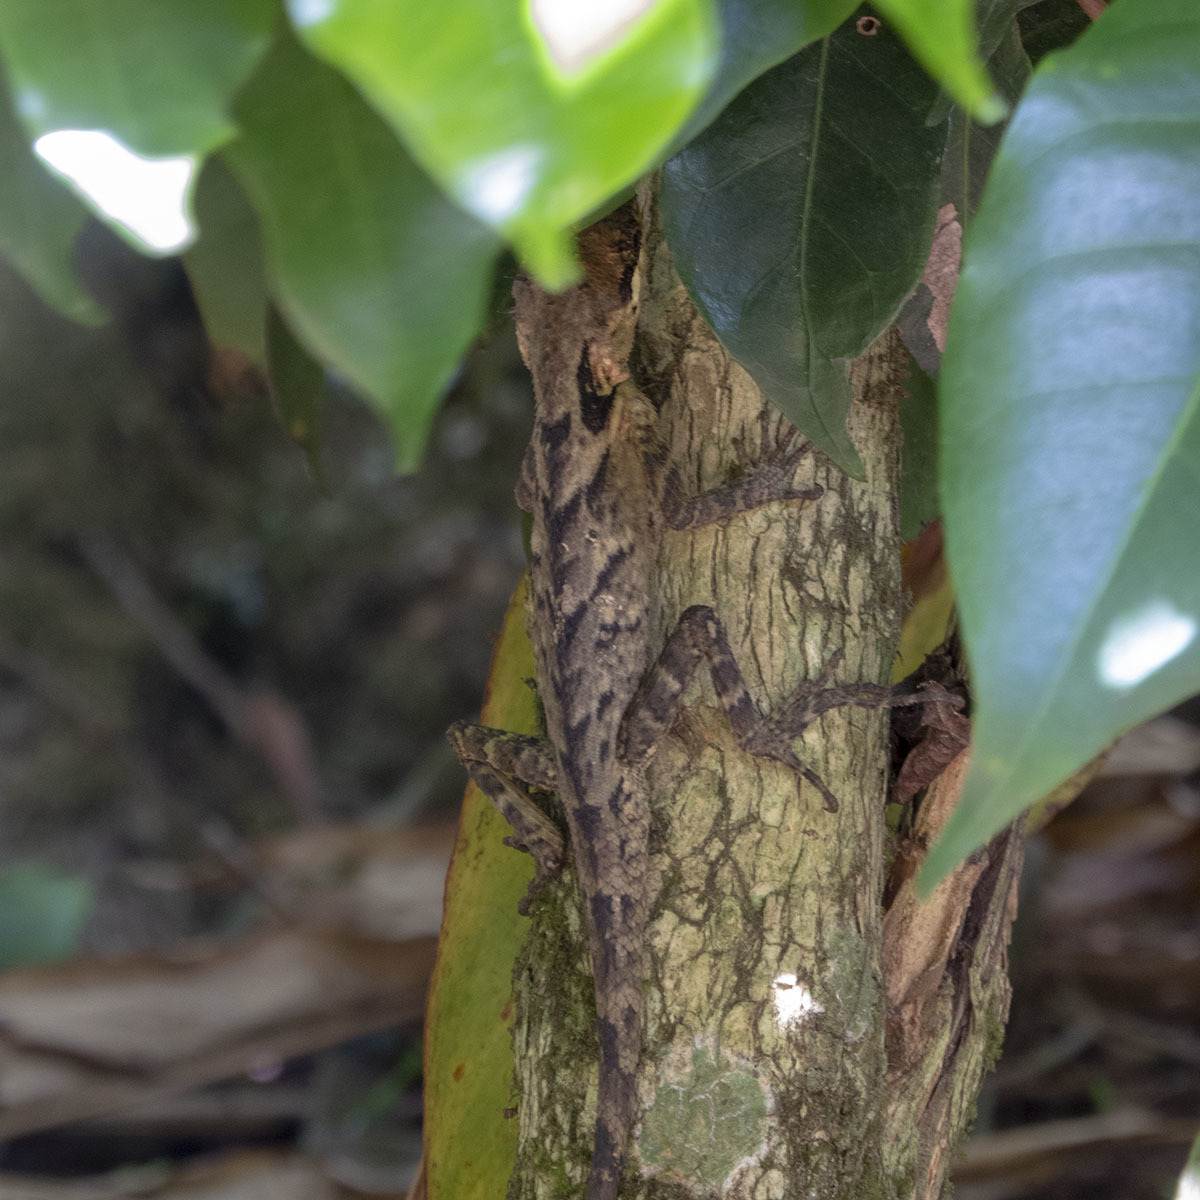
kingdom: Animalia
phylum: Chordata
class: Squamata
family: Agamidae
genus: Monilesaurus
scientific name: Monilesaurus ellioti
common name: Elliot's forest lizard
